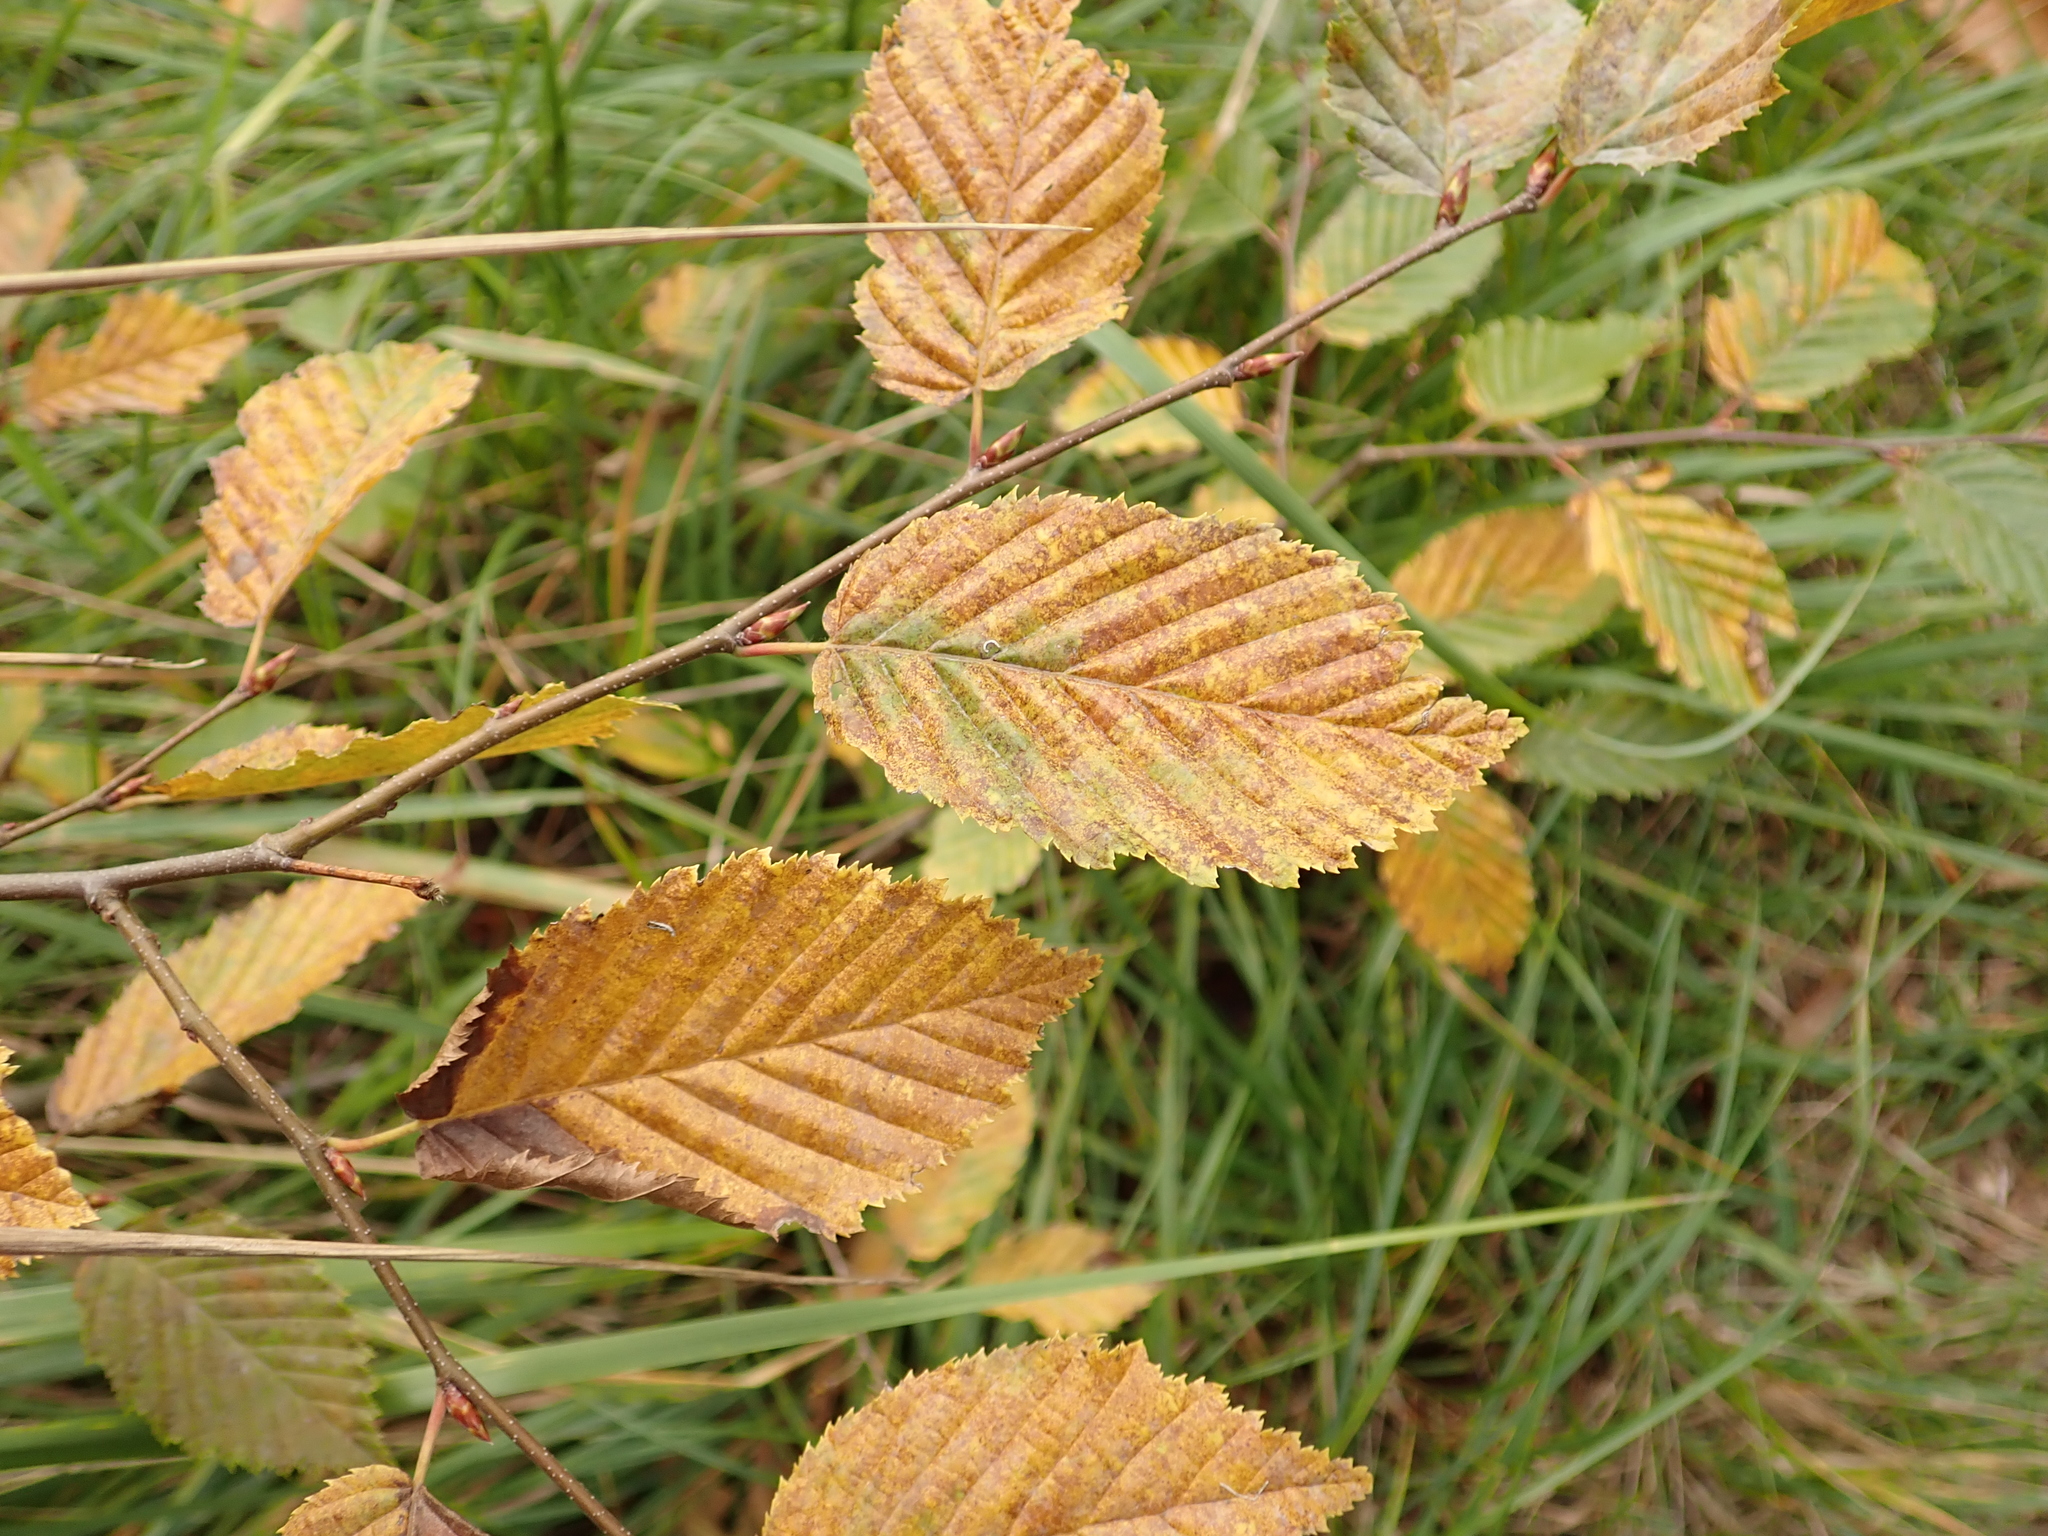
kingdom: Plantae
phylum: Tracheophyta
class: Magnoliopsida
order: Fagales
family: Betulaceae
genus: Carpinus
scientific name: Carpinus betulus
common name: Hornbeam
